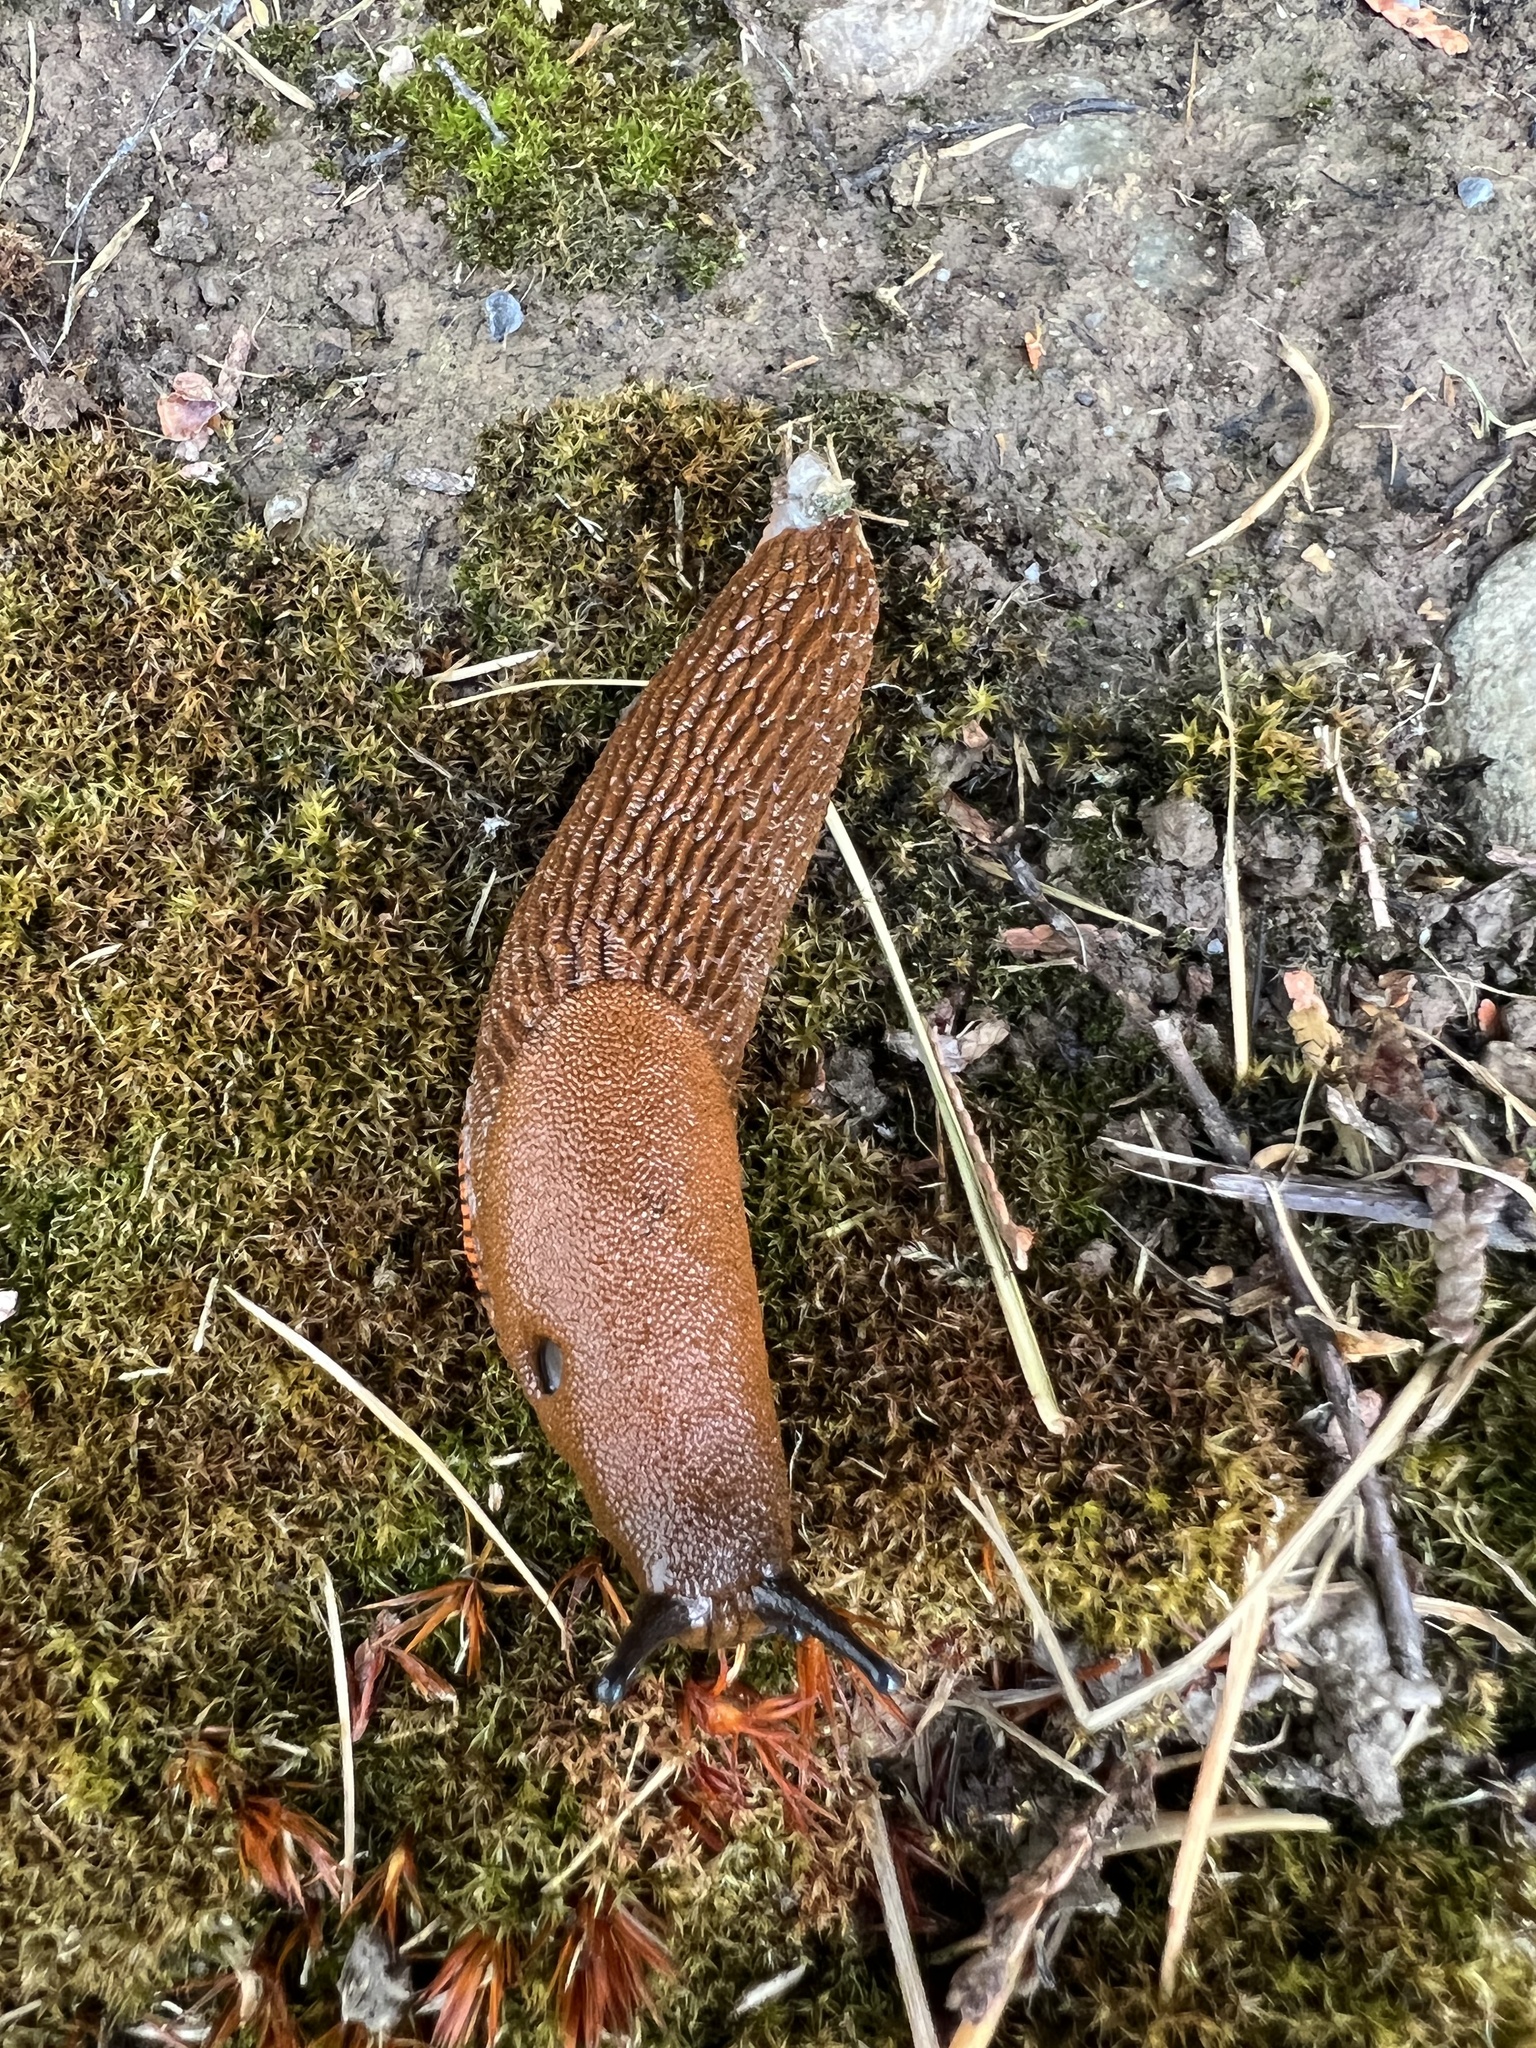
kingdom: Animalia
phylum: Mollusca
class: Gastropoda
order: Stylommatophora
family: Arionidae
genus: Arion
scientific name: Arion
